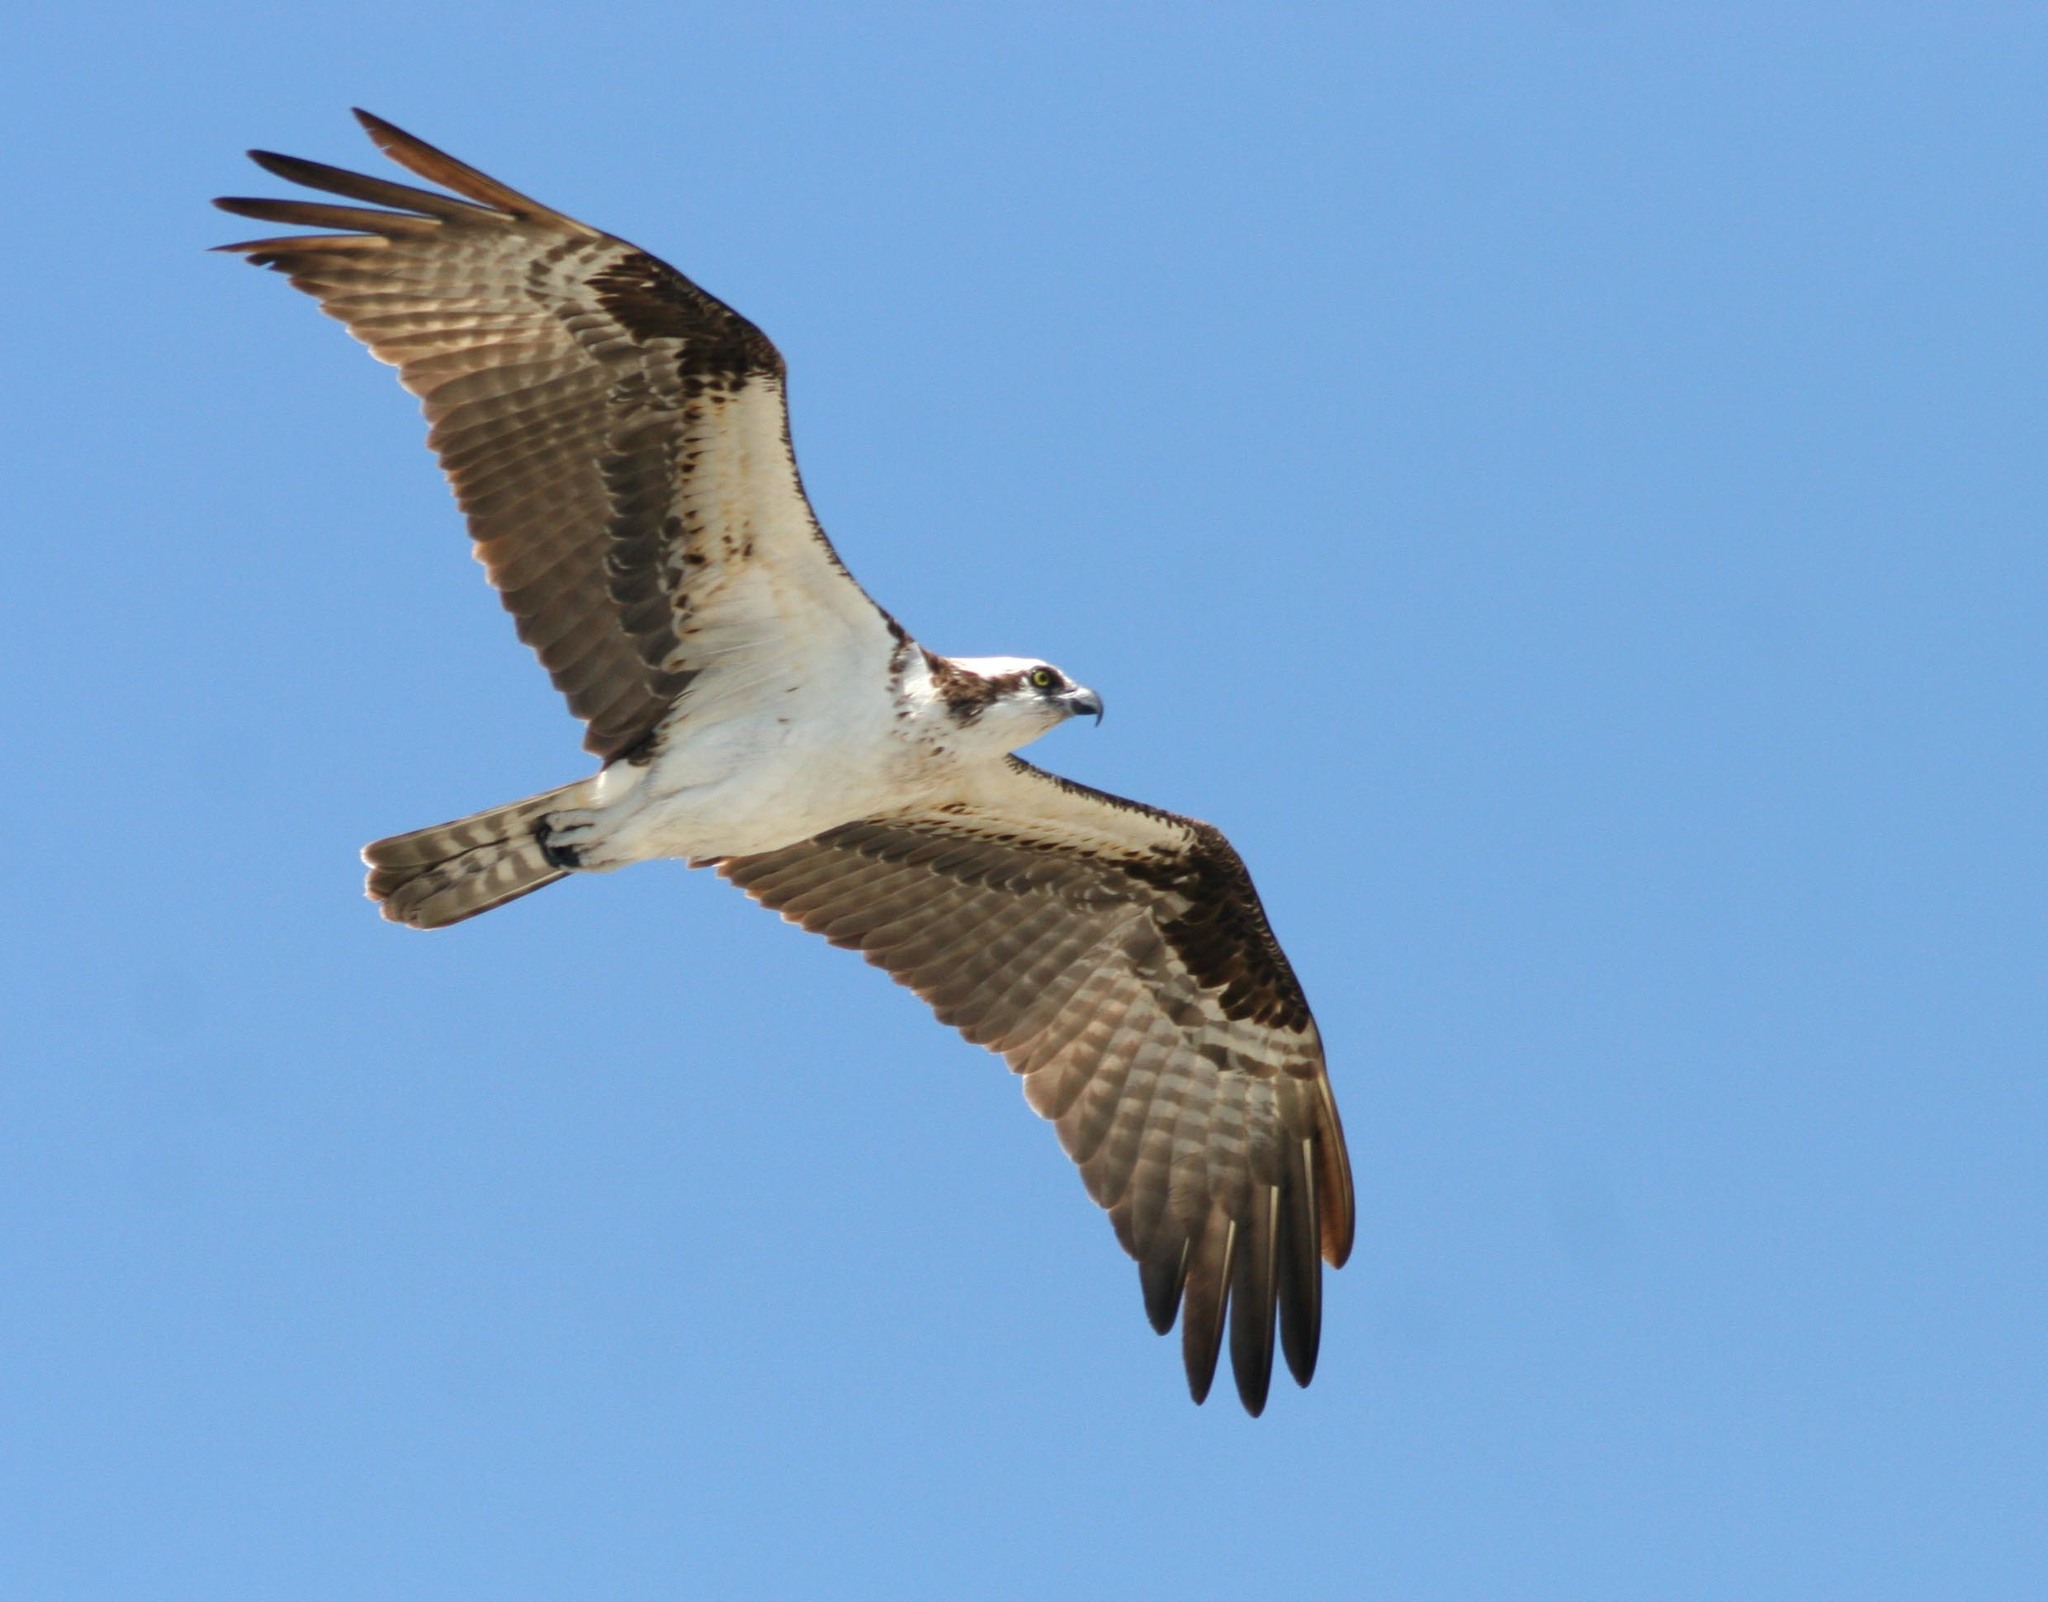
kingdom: Animalia
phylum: Chordata
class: Aves
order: Accipitriformes
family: Pandionidae
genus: Pandion
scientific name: Pandion haliaetus
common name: Osprey
